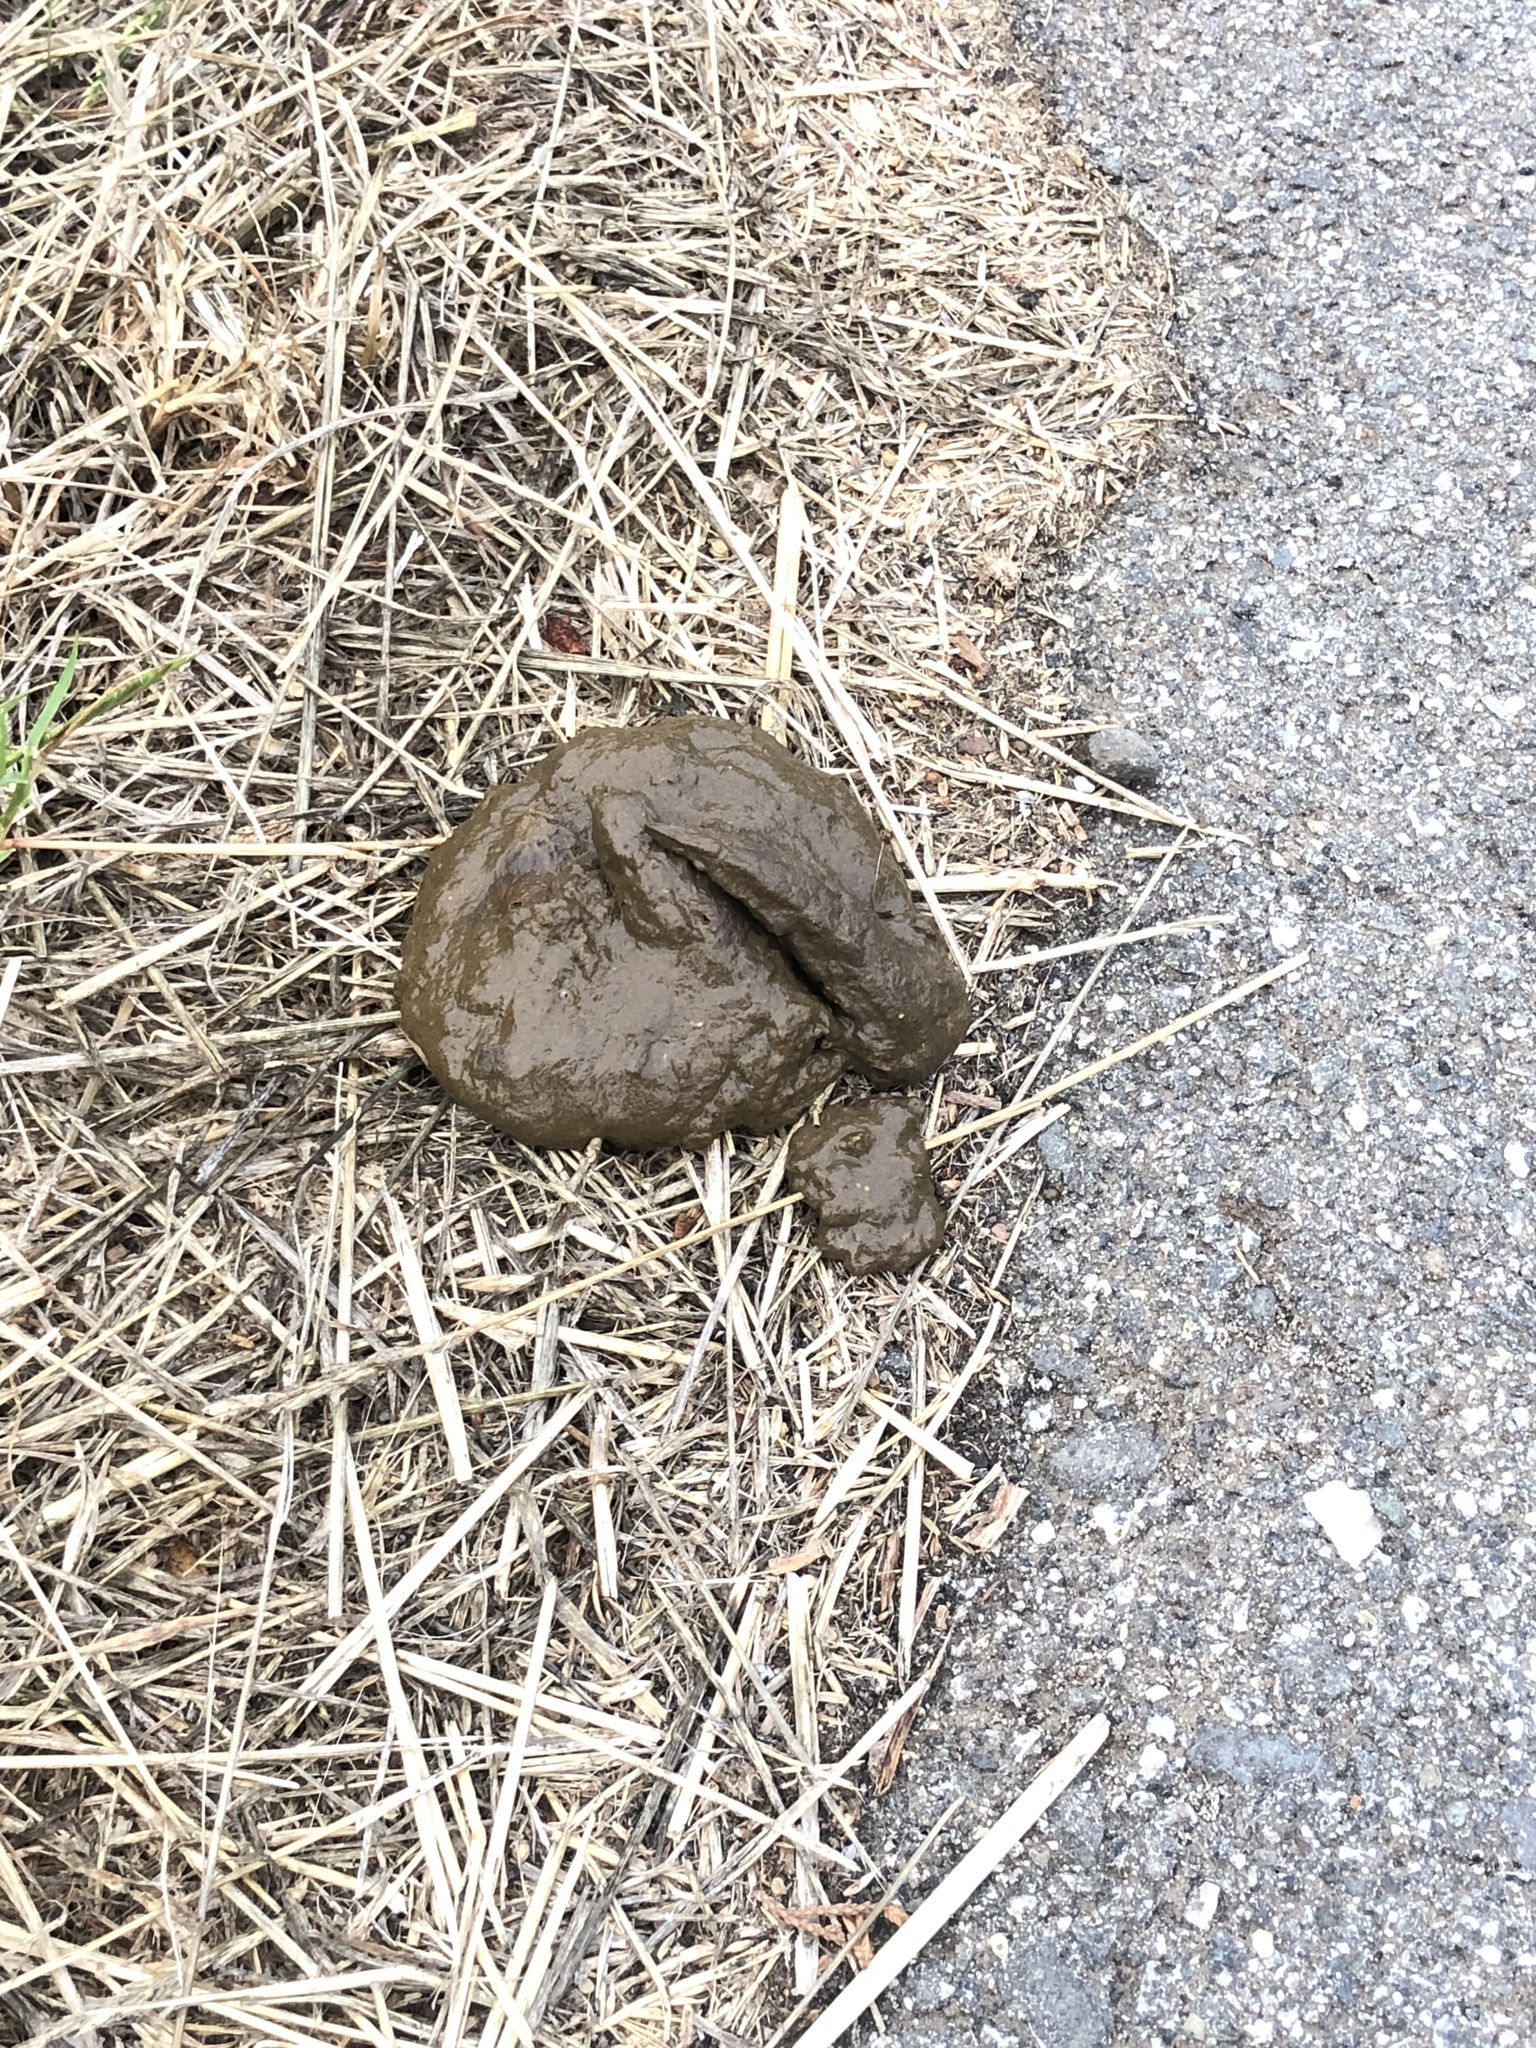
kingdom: Animalia
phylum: Chordata
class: Mammalia
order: Carnivora
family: Canidae
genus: Canis
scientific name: Canis latrans
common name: Coyote
